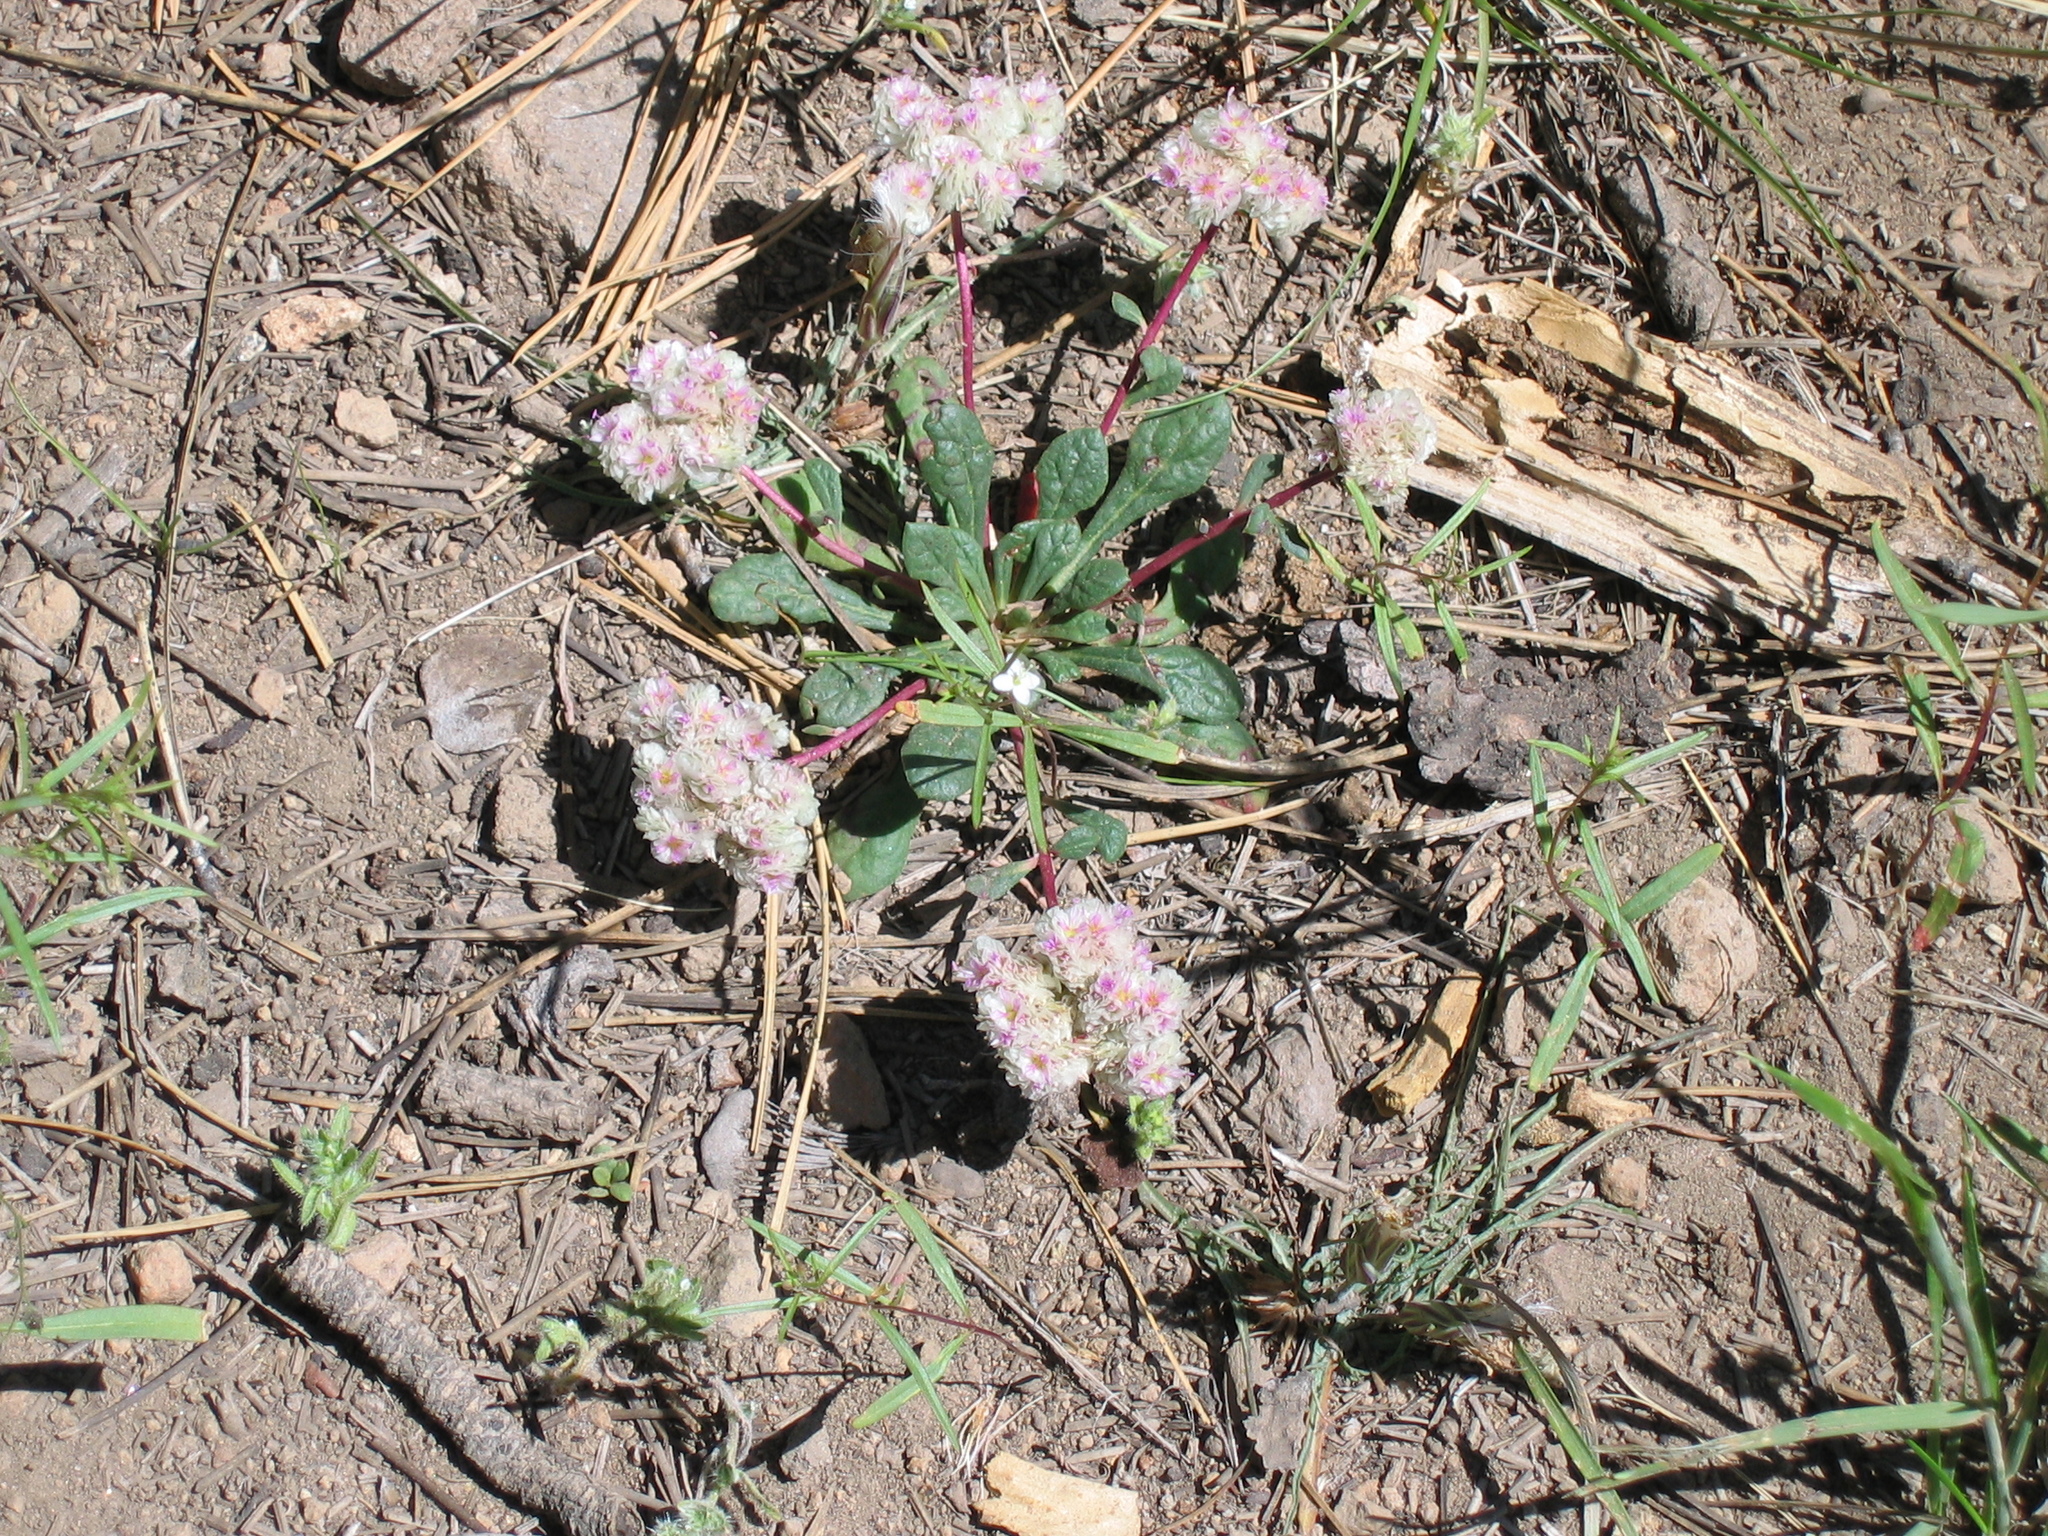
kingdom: Plantae
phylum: Tracheophyta
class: Magnoliopsida
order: Caryophyllales
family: Montiaceae
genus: Calyptridium
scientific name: Calyptridium monospermum
